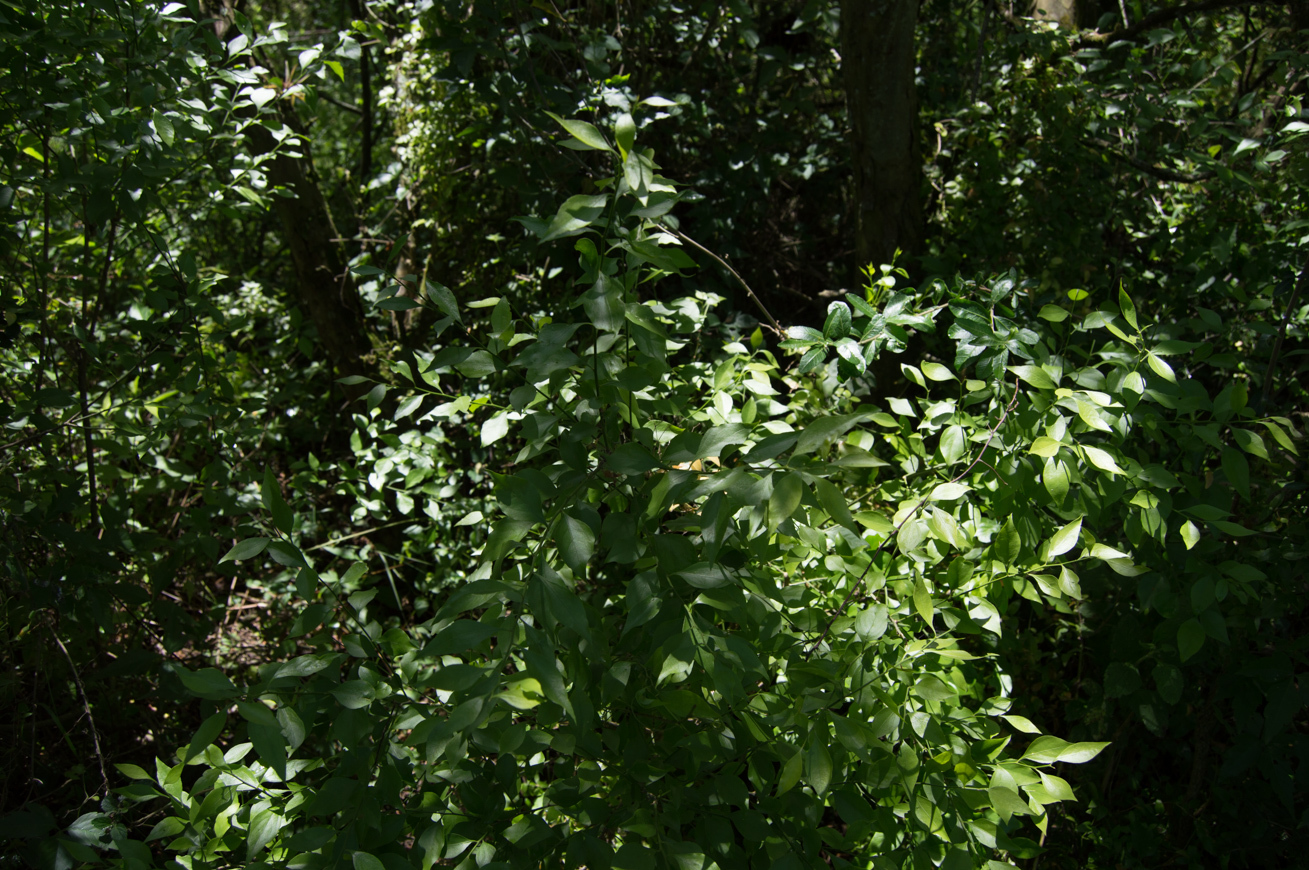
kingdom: Plantae
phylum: Tracheophyta
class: Magnoliopsida
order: Celastrales
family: Celastraceae
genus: Schaefferia
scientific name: Schaefferia argentinensis
